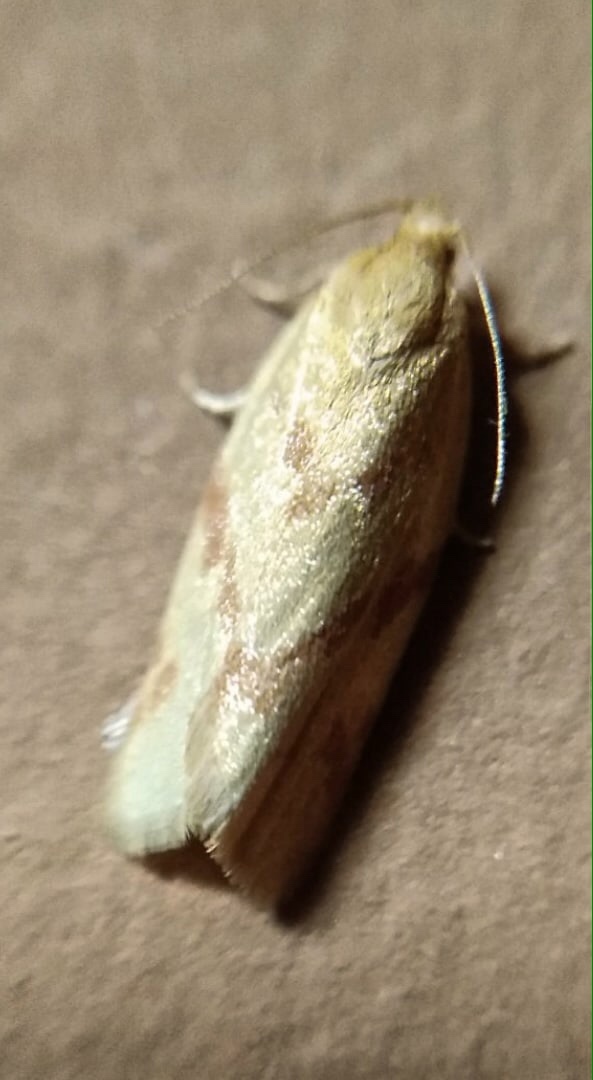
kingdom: Animalia
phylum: Arthropoda
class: Insecta
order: Lepidoptera
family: Tortricidae
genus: Aethes
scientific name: Aethes margaritana
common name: Silver coast conch
